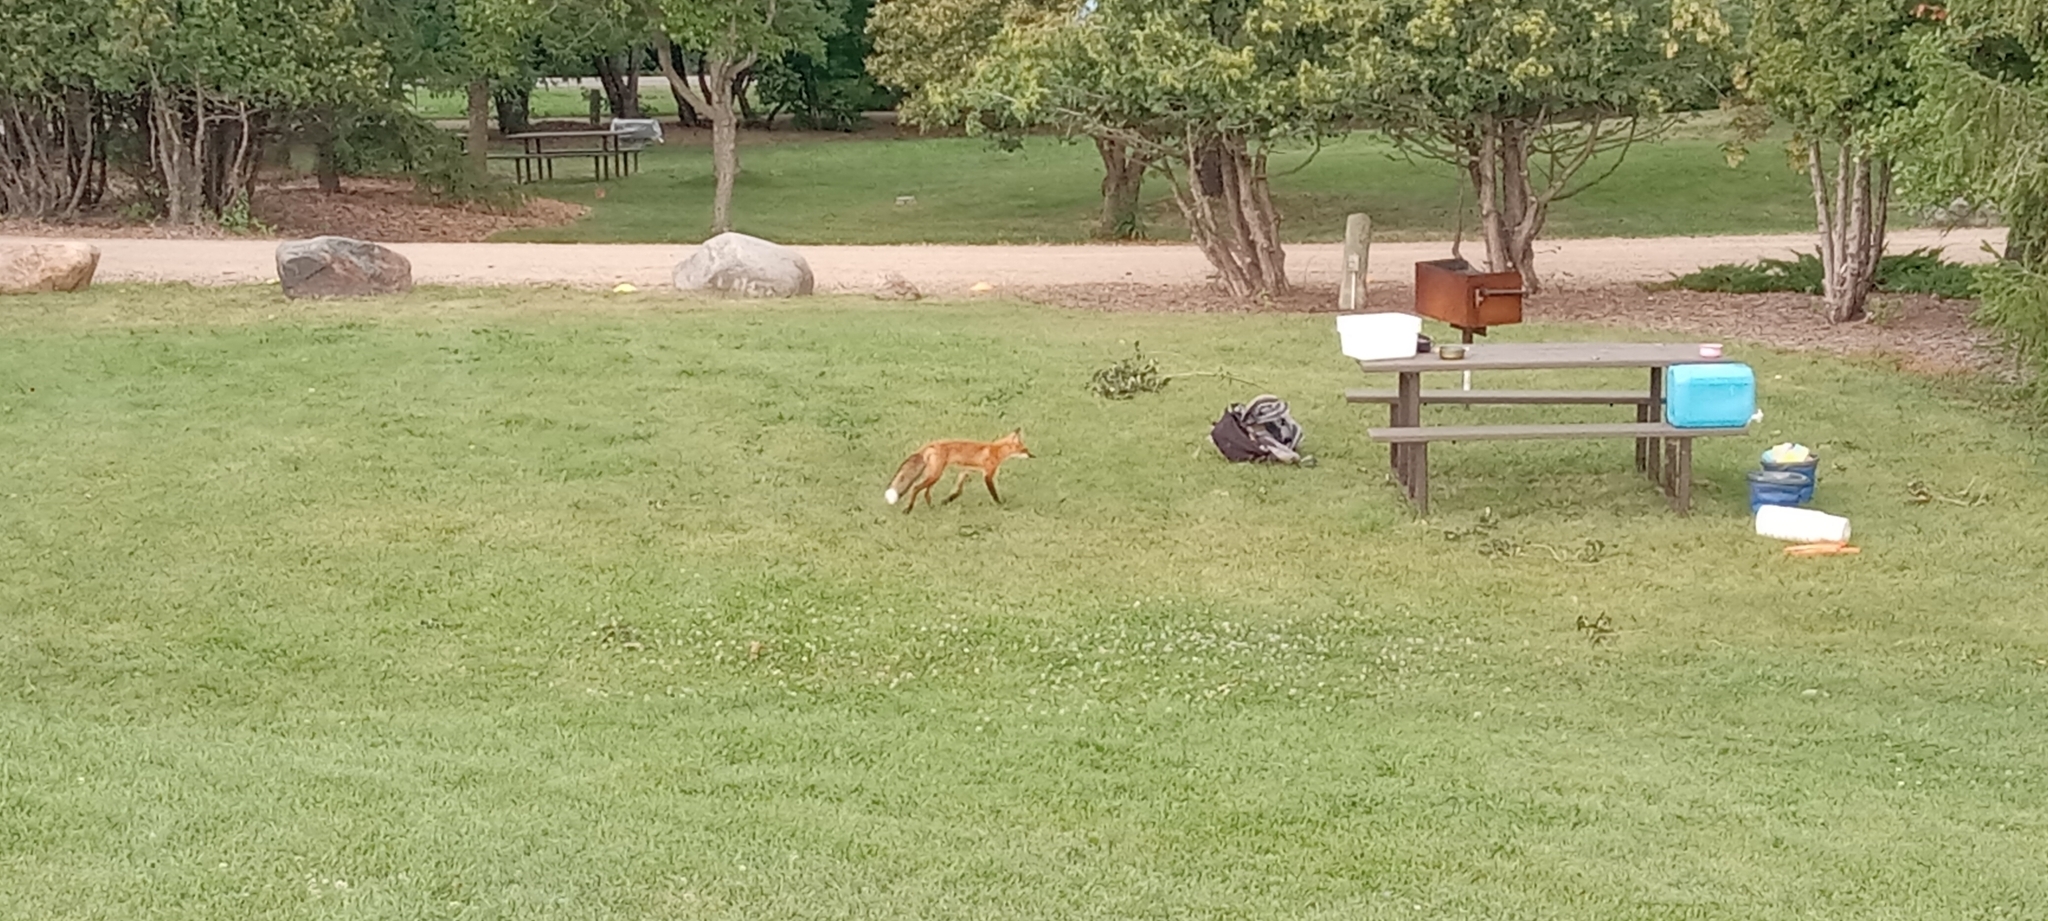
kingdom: Animalia
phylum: Chordata
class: Mammalia
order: Carnivora
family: Canidae
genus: Vulpes
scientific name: Vulpes vulpes
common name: Red fox
